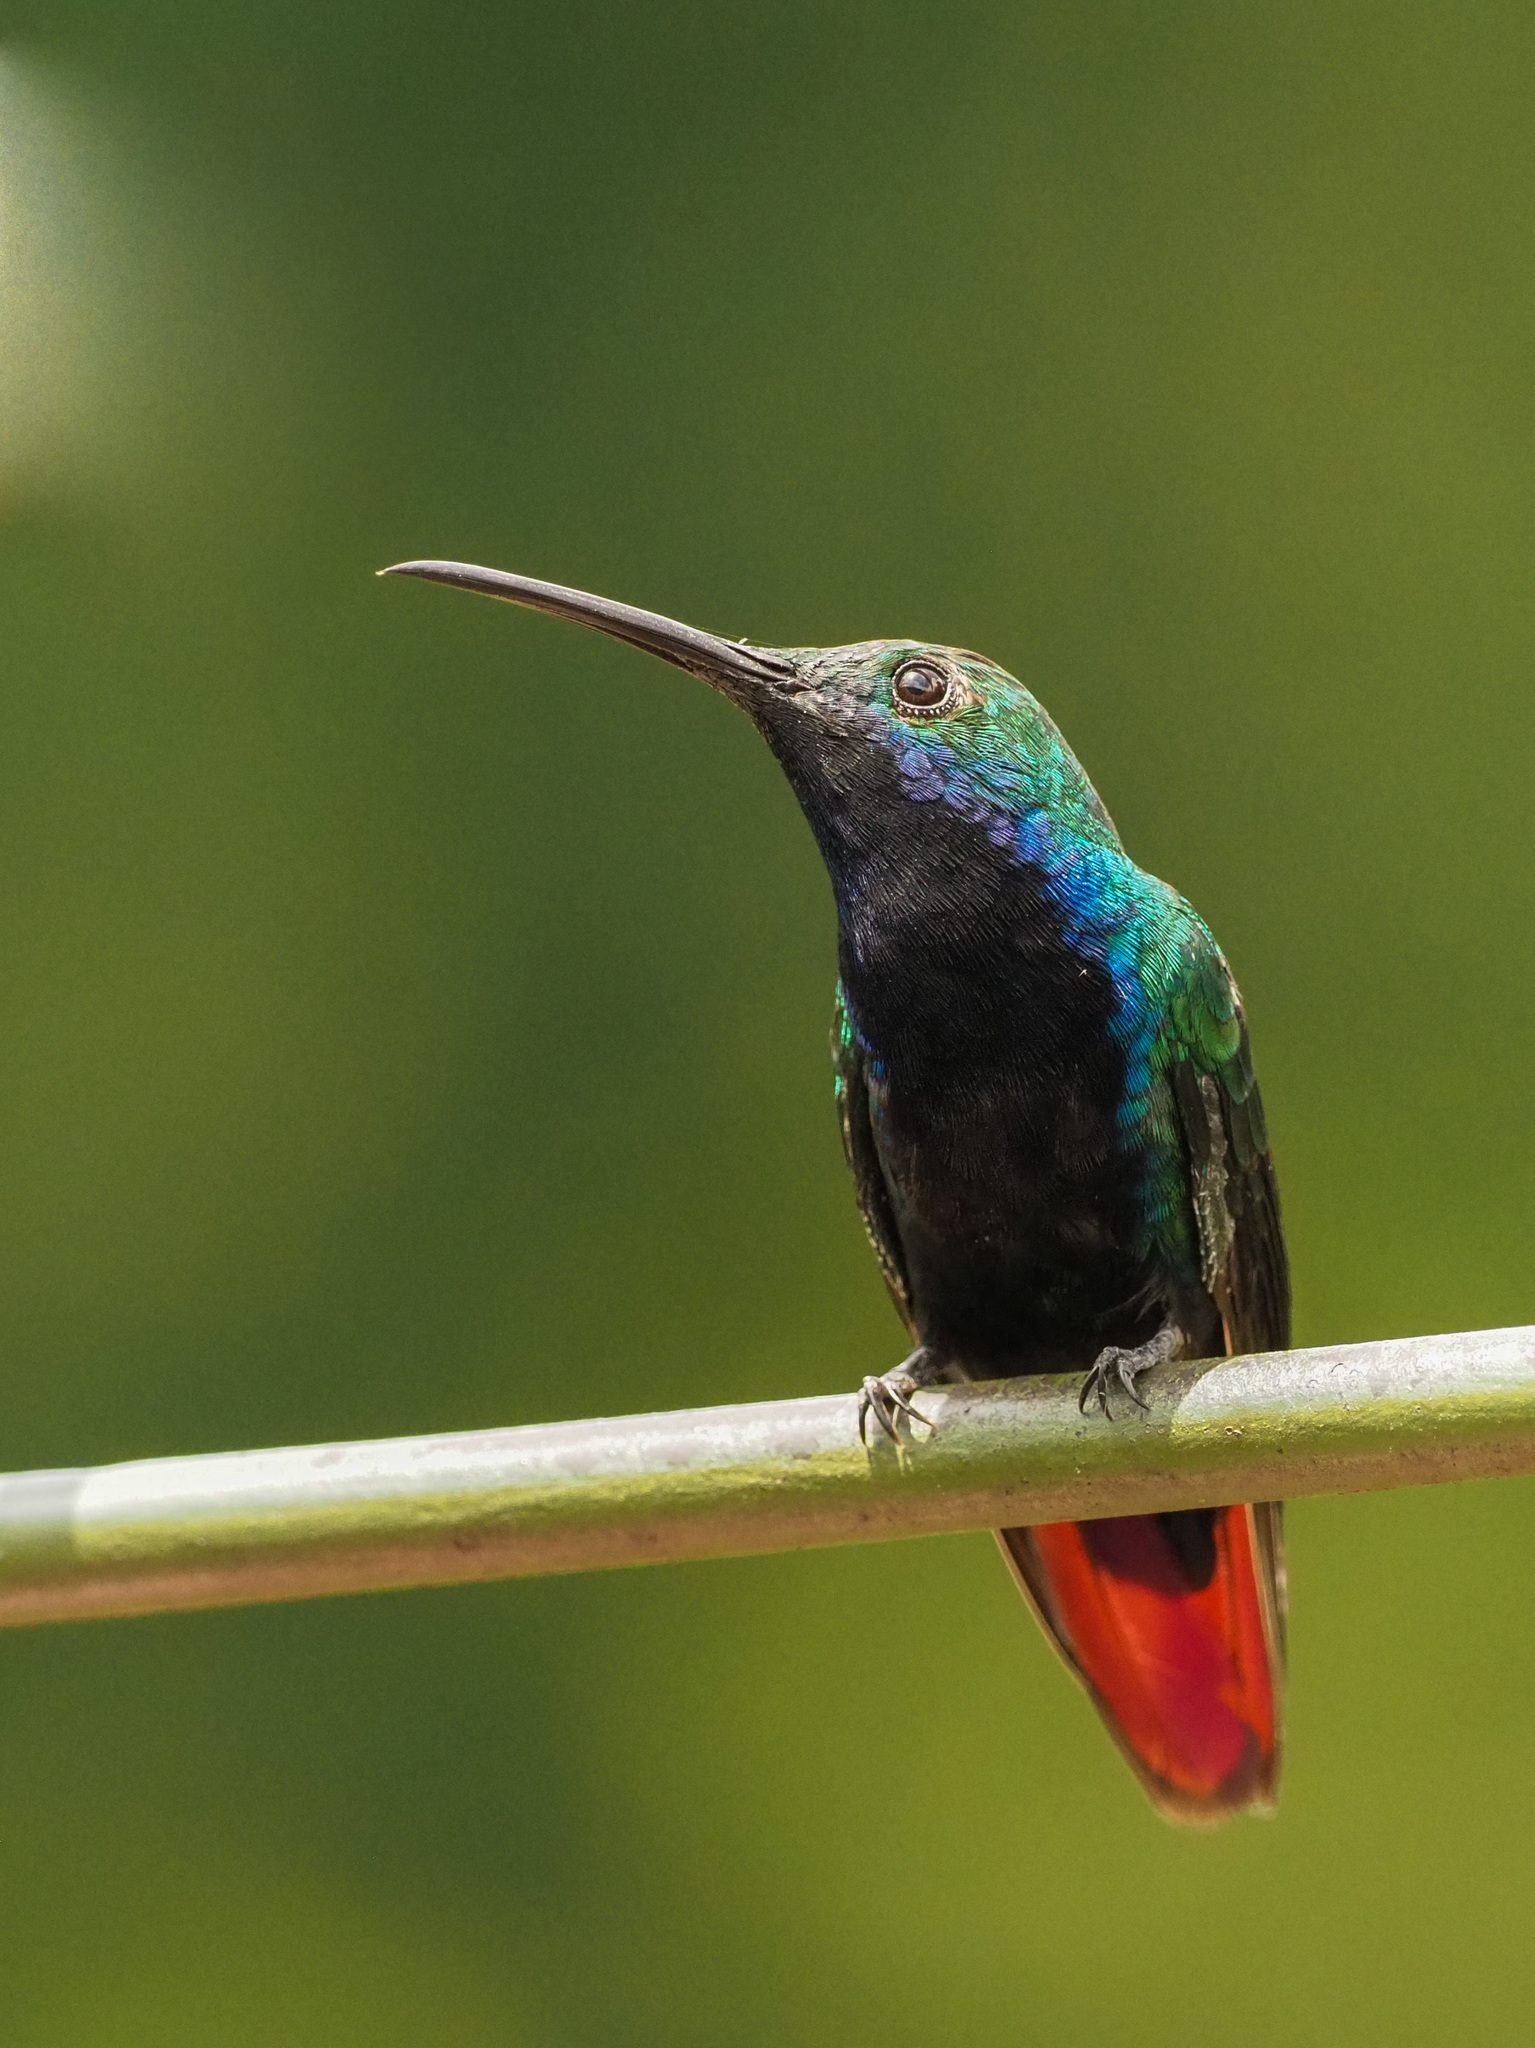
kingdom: Animalia
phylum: Chordata
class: Aves
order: Apodiformes
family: Trochilidae
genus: Anthracothorax
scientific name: Anthracothorax nigricollis
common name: Black-throated mango
